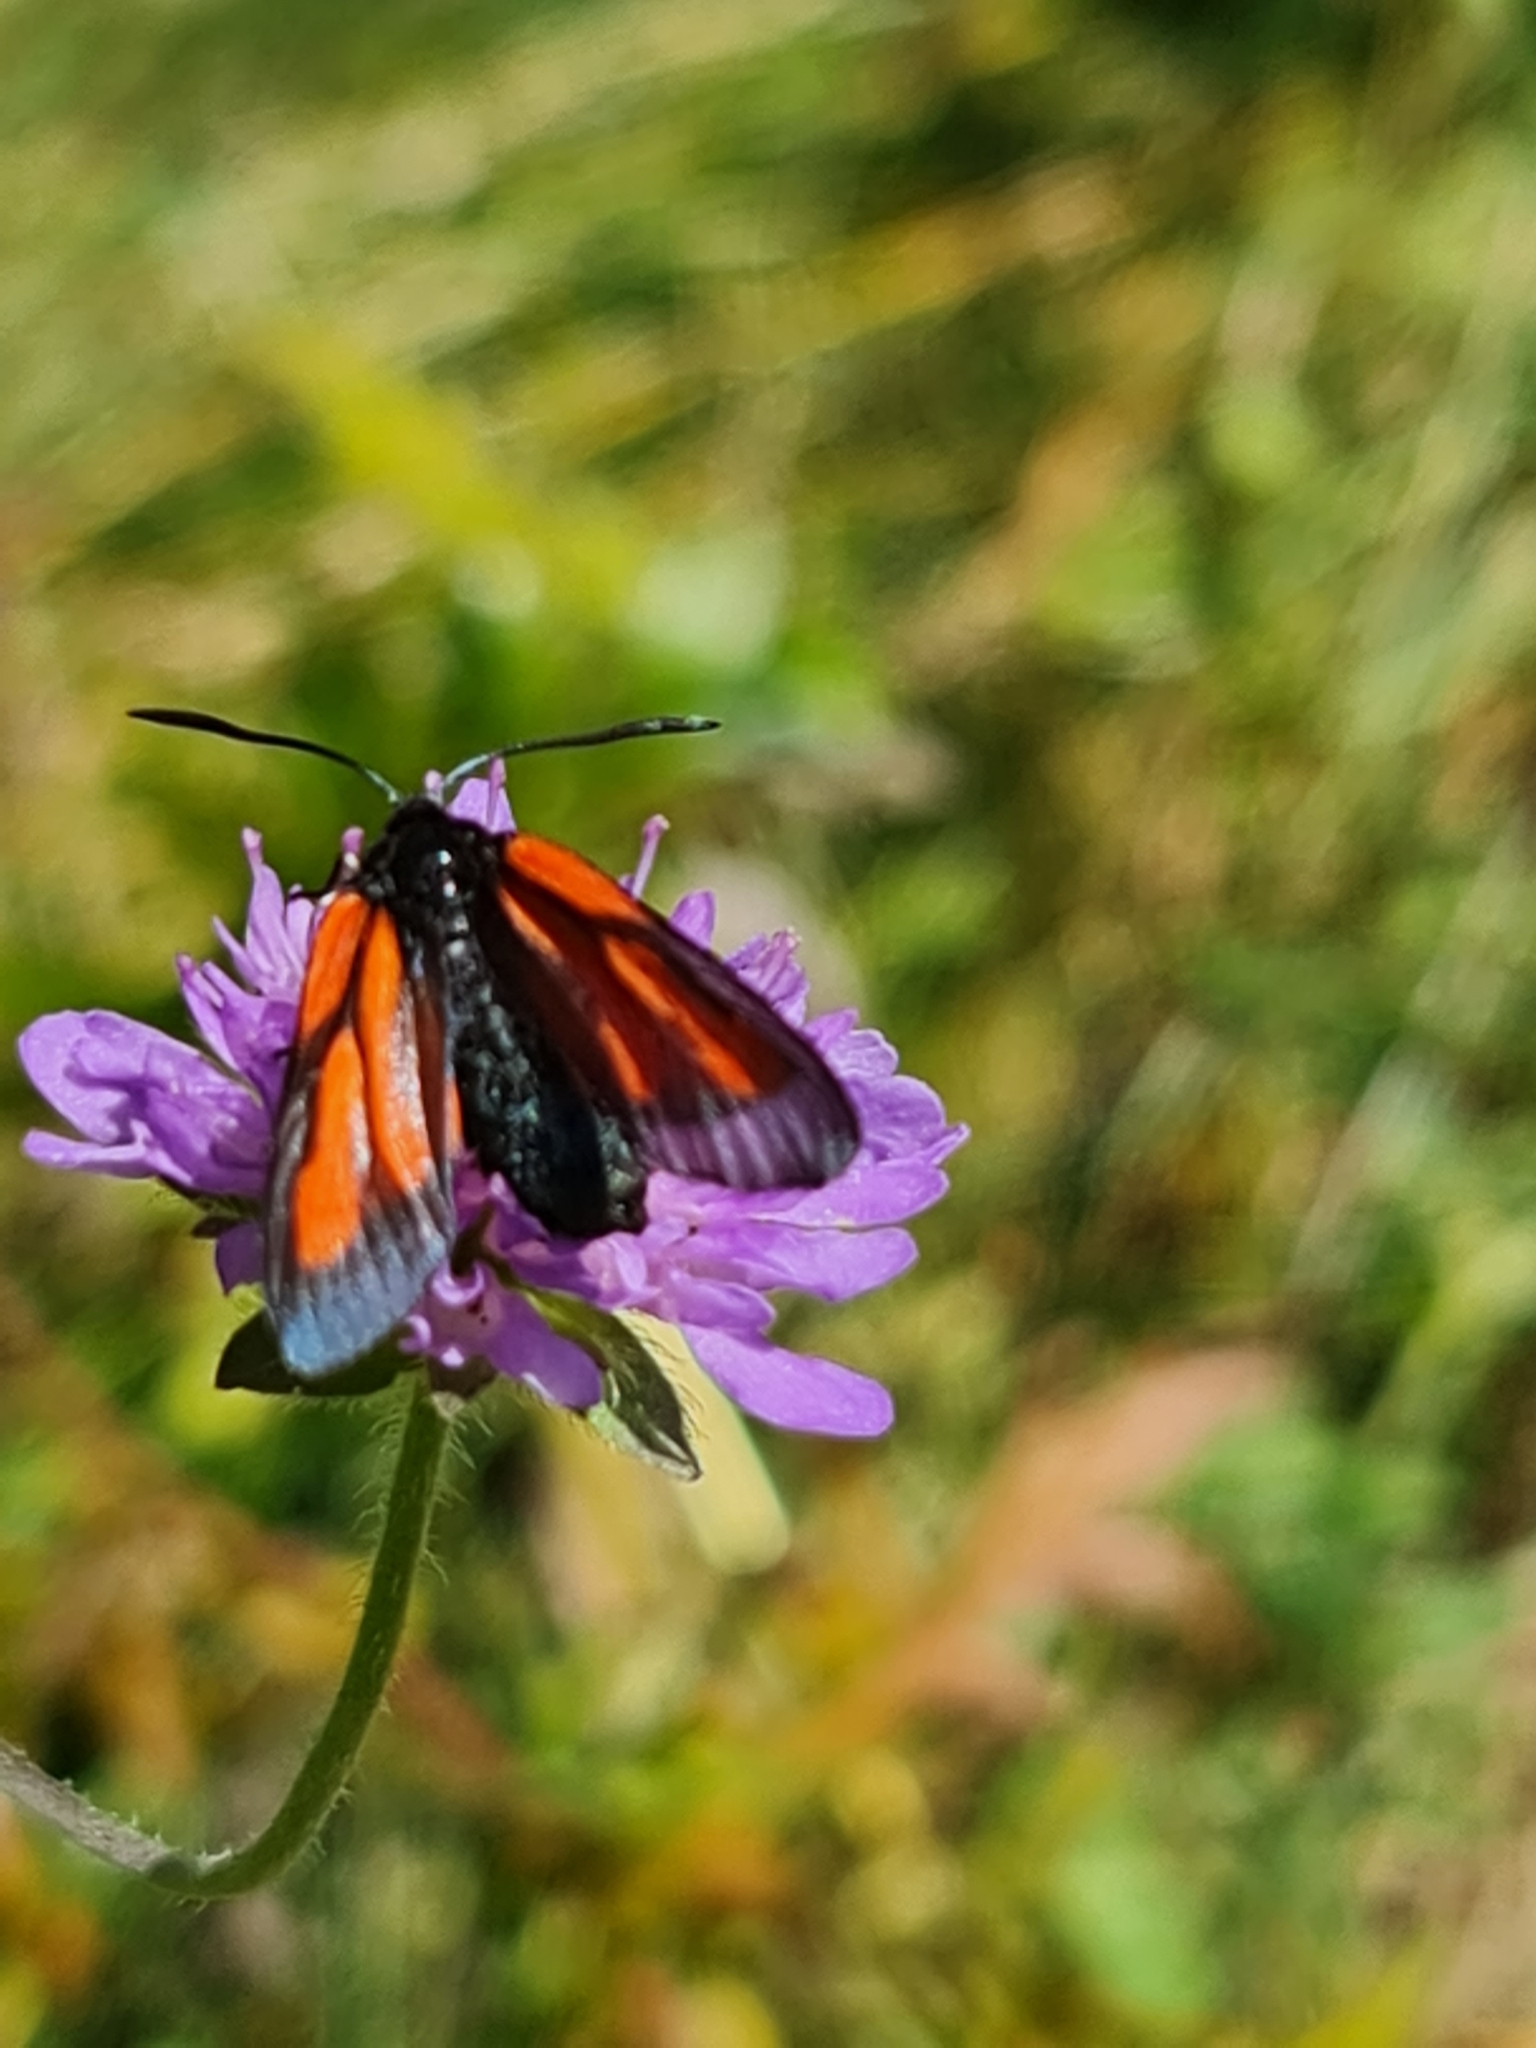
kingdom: Animalia
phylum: Arthropoda
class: Insecta
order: Lepidoptera
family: Zygaenidae
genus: Zygaena
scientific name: Zygaena osterodensis
